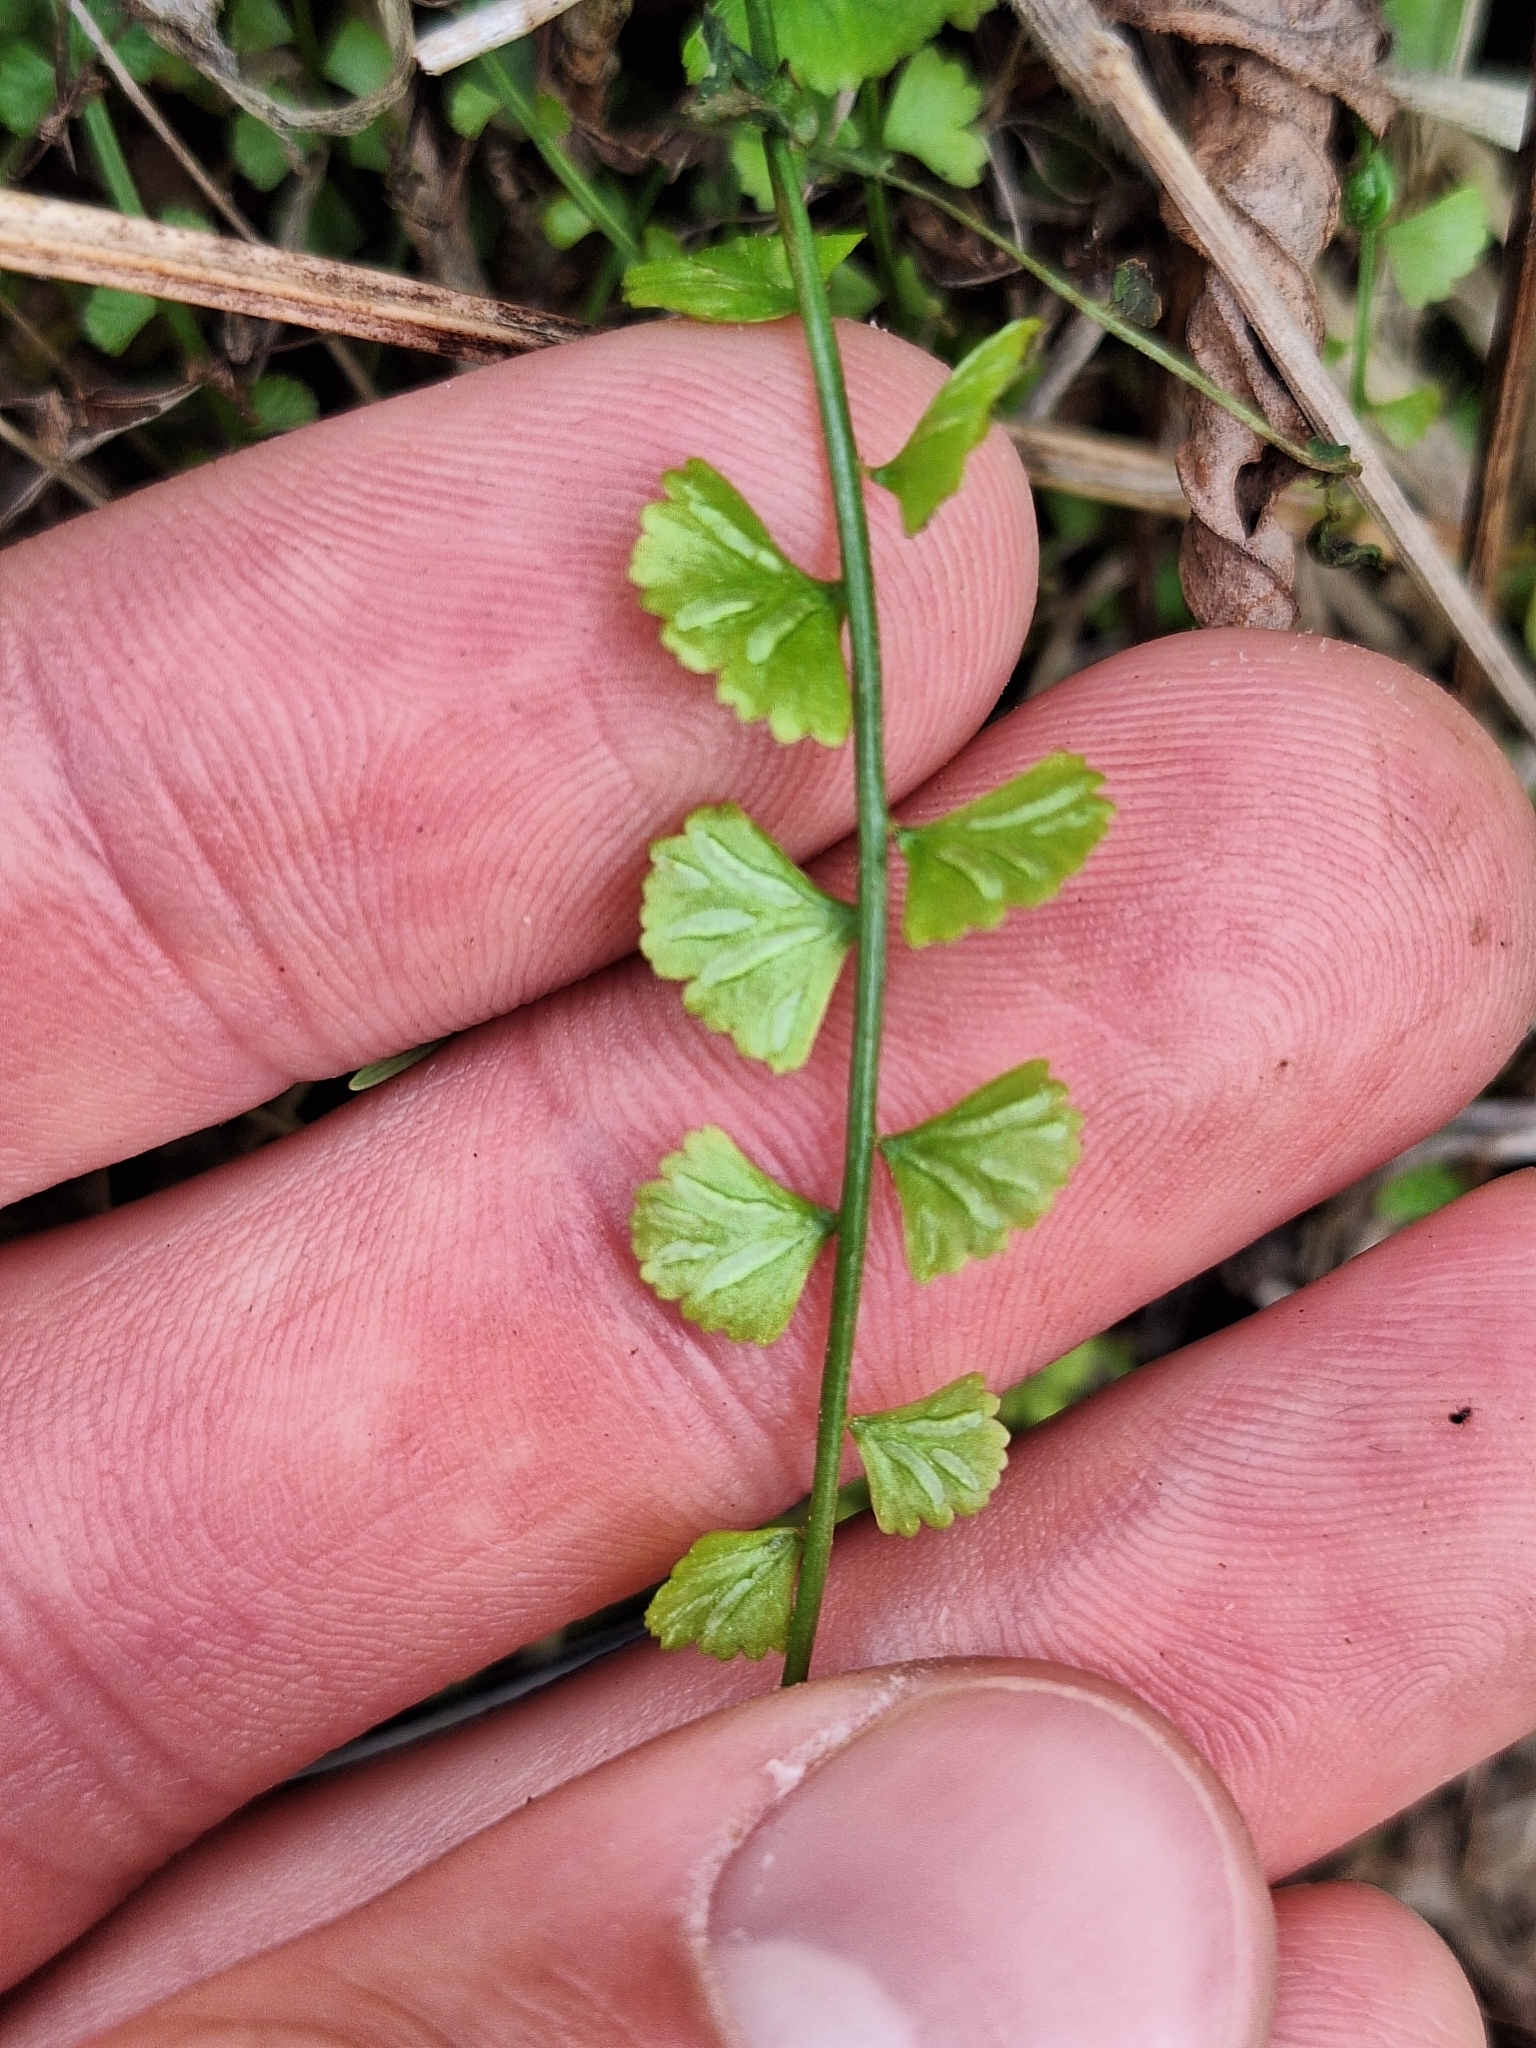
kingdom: Plantae
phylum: Tracheophyta
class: Polypodiopsida
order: Polypodiales
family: Aspleniaceae
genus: Asplenium
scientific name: Asplenium flabellifolium
